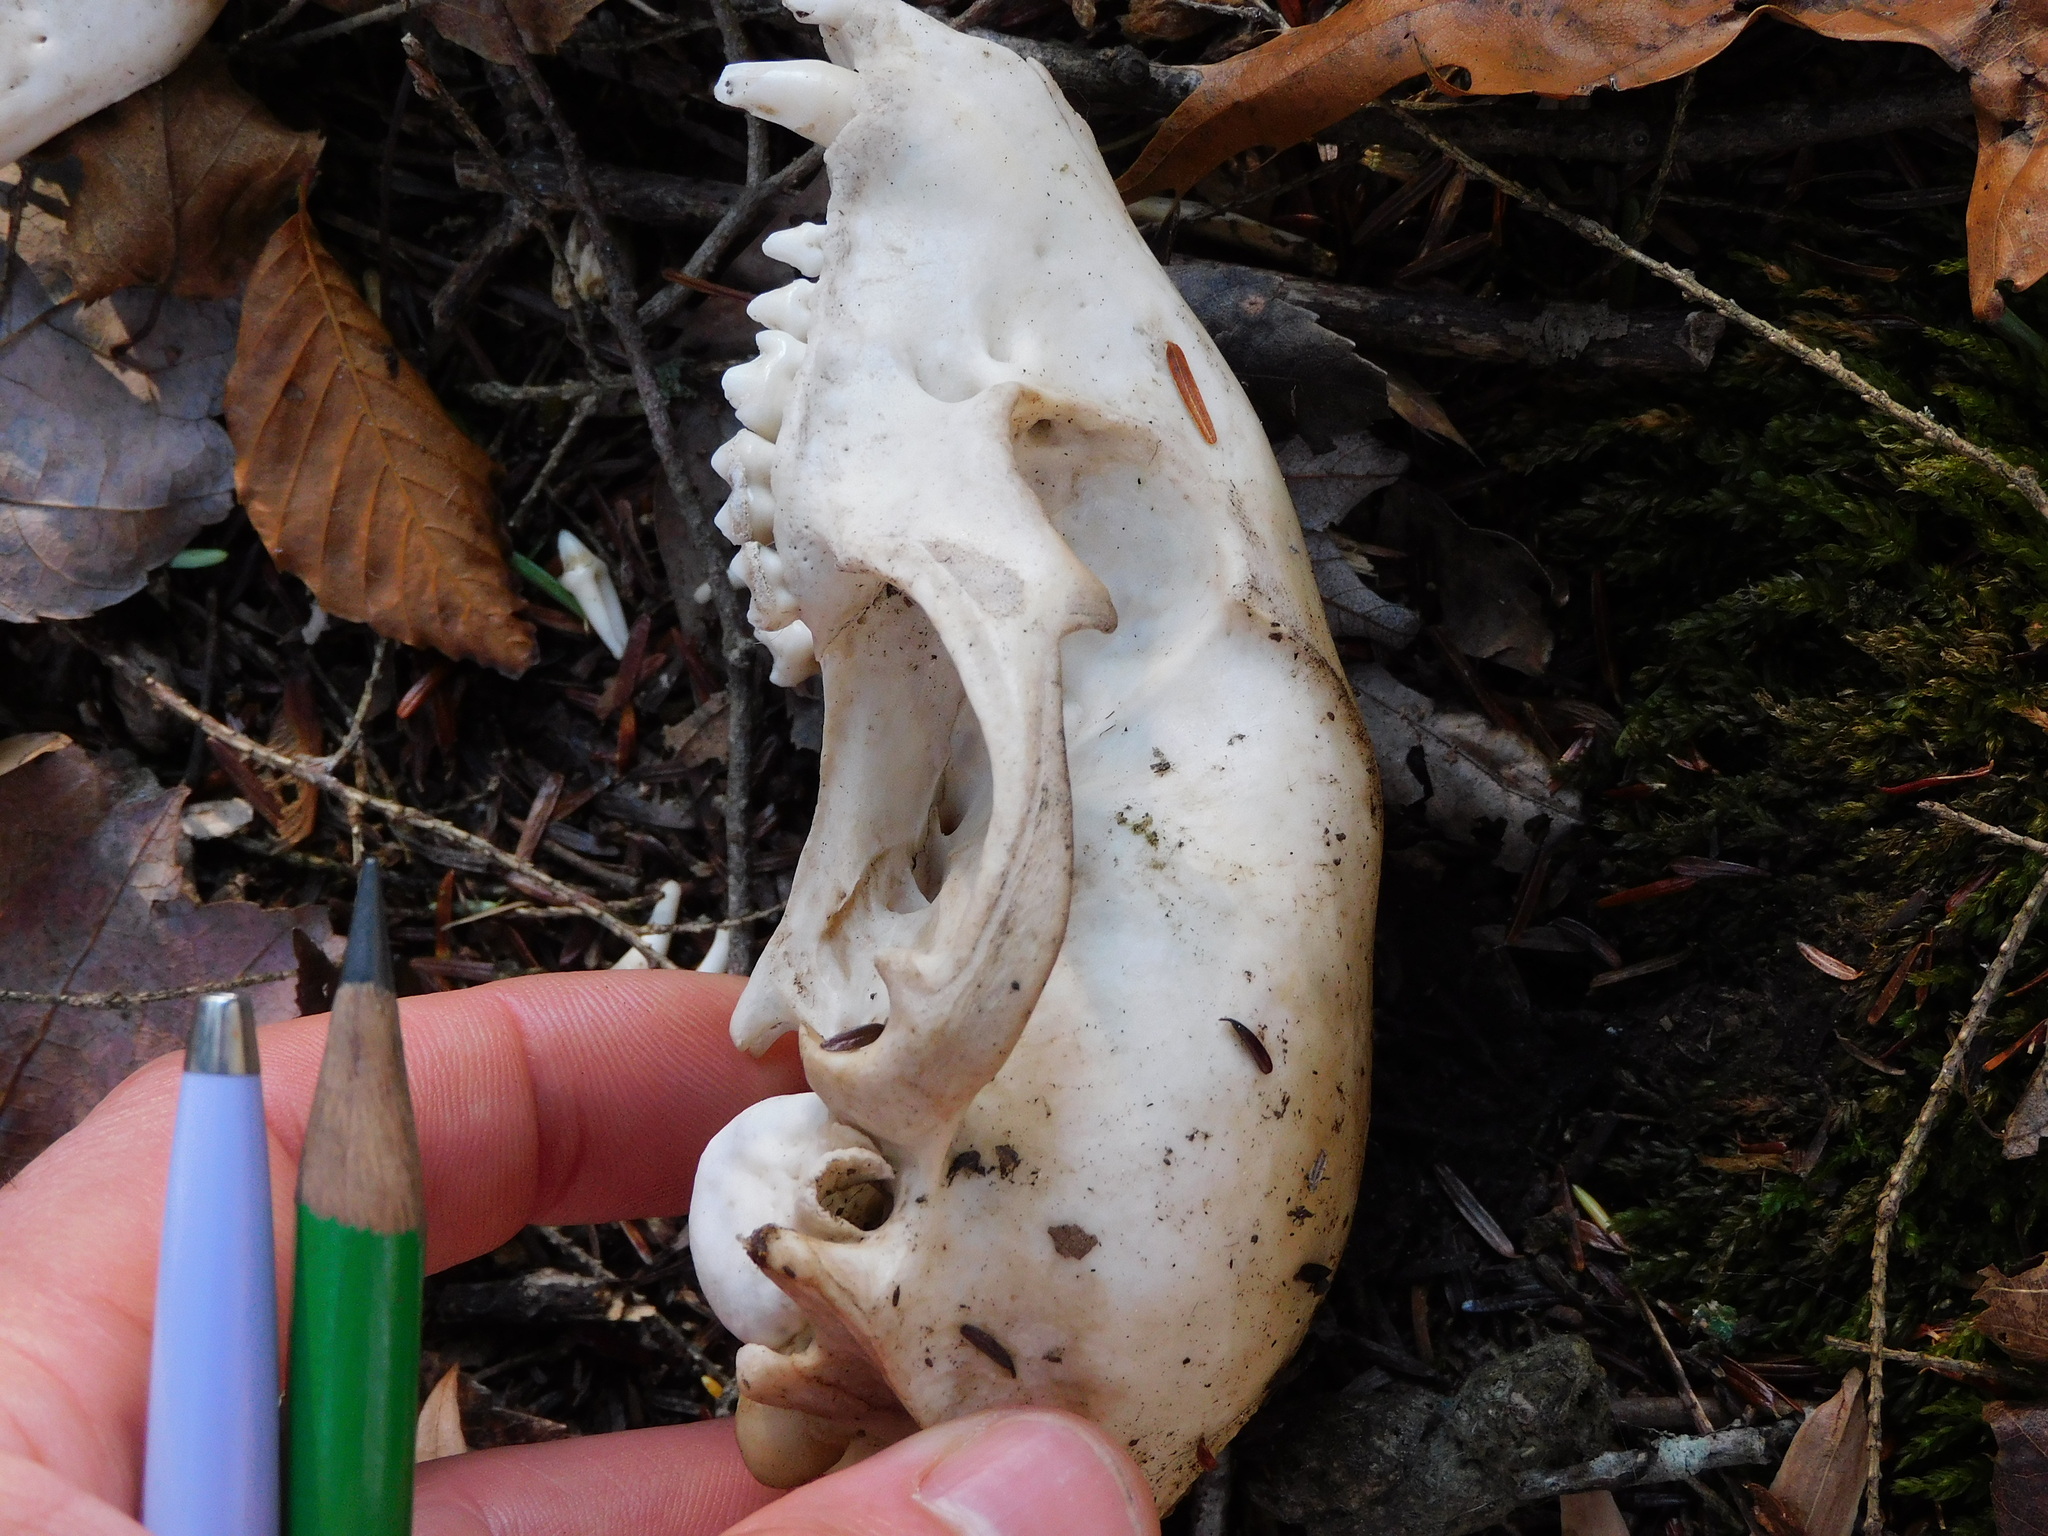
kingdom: Animalia
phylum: Chordata
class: Mammalia
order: Carnivora
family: Procyonidae
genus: Procyon
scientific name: Procyon lotor
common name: Raccoon
